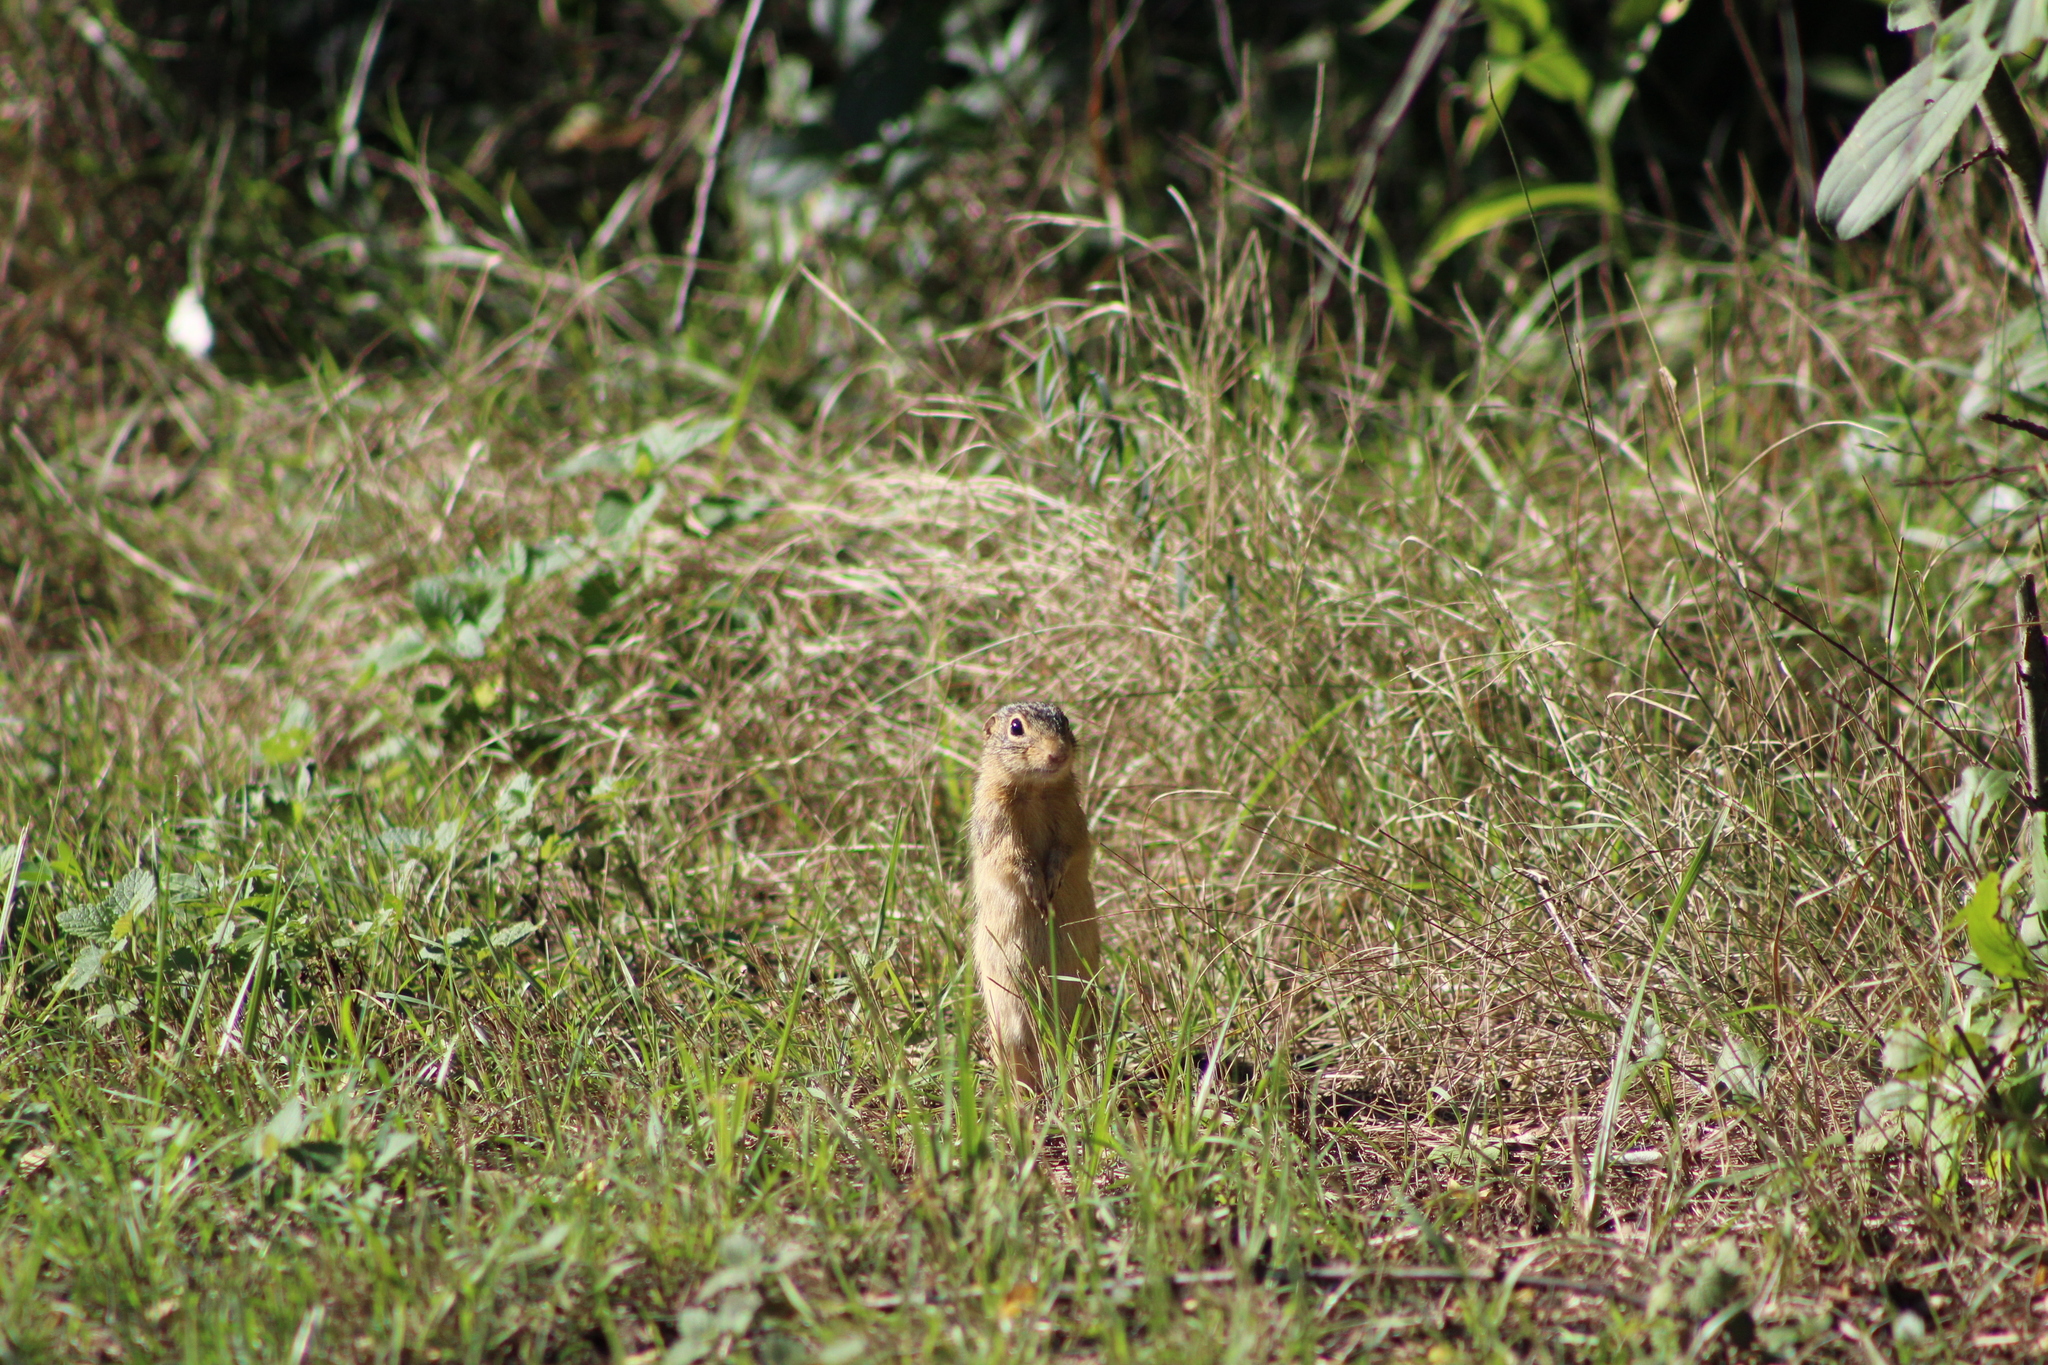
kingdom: Animalia
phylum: Chordata
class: Mammalia
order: Rodentia
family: Sciuridae
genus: Urocitellus
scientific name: Urocitellus richardsonii
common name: Richardson's ground squirrel
